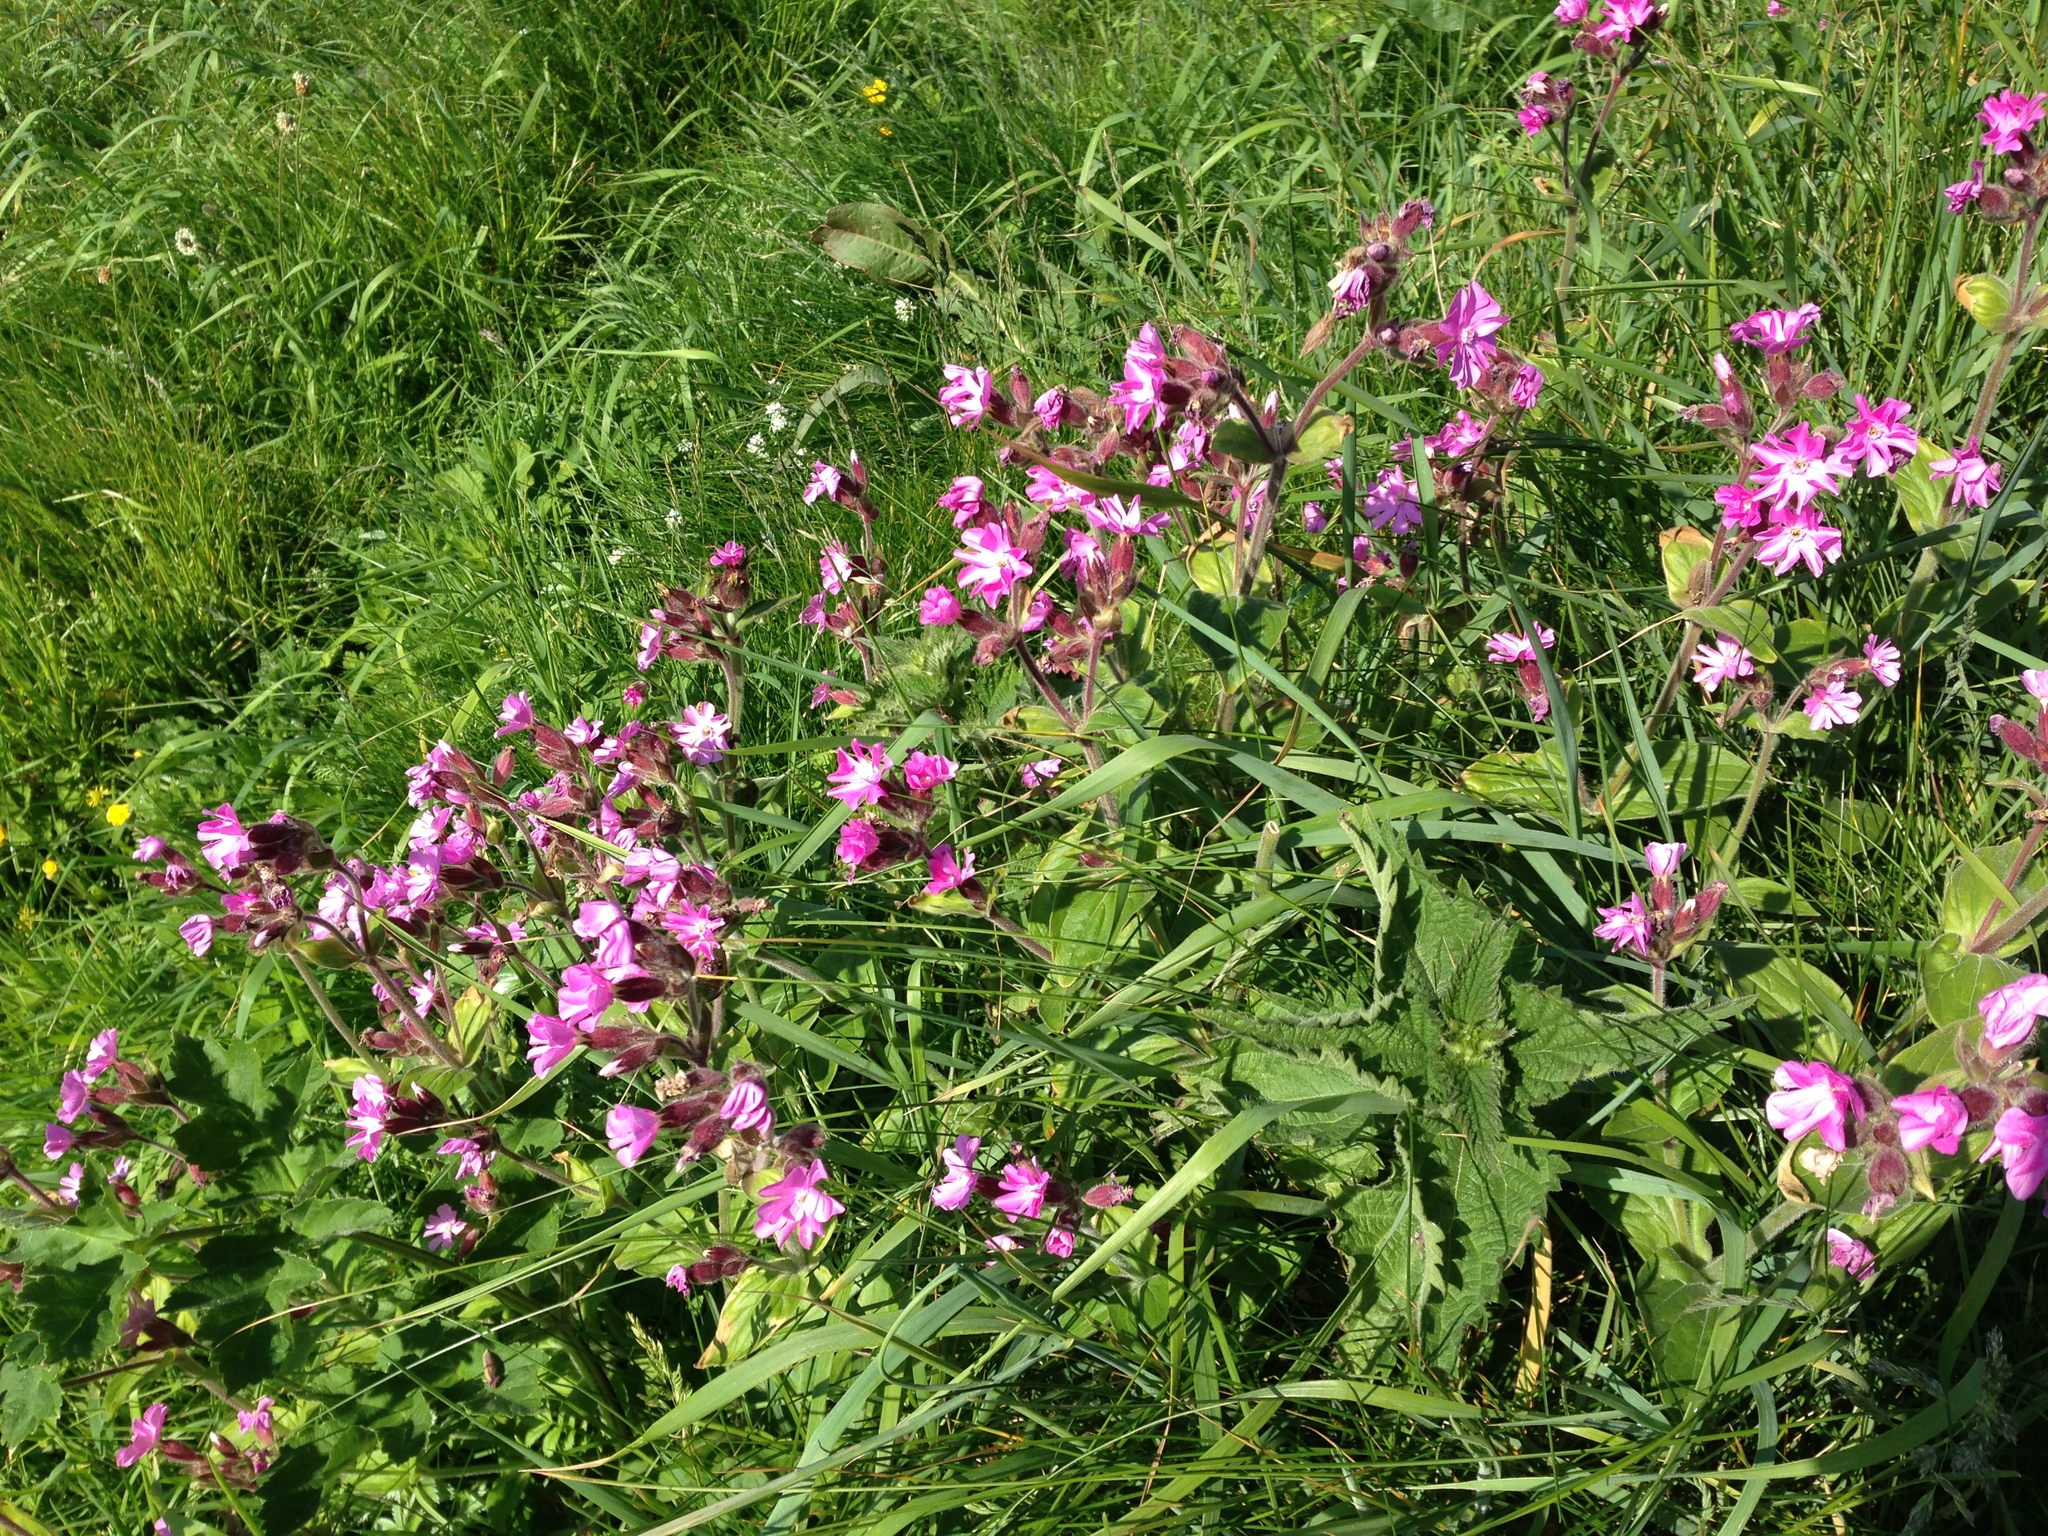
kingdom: Plantae
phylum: Tracheophyta
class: Magnoliopsida
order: Caryophyllales
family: Caryophyllaceae
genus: Silene
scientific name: Silene dioica
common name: Red campion
